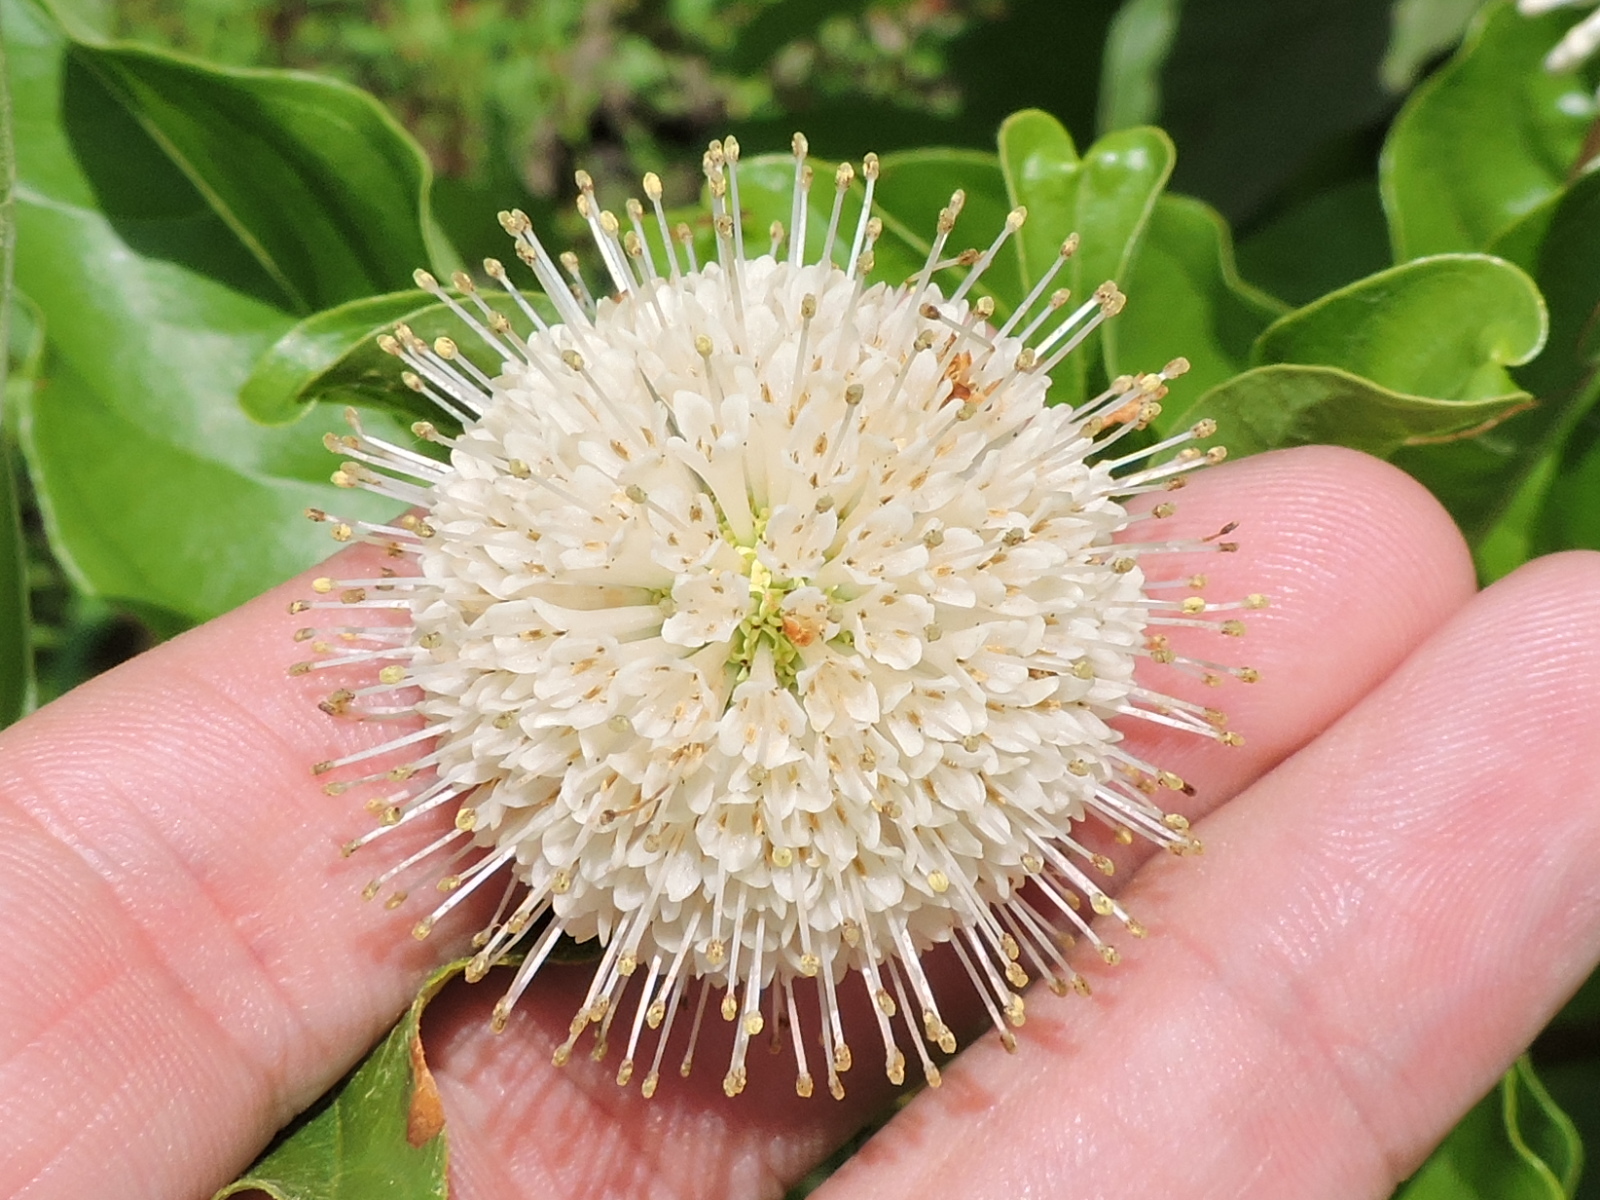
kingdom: Plantae
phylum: Tracheophyta
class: Magnoliopsida
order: Gentianales
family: Rubiaceae
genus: Cephalanthus
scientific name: Cephalanthus occidentalis
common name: Button-willow
